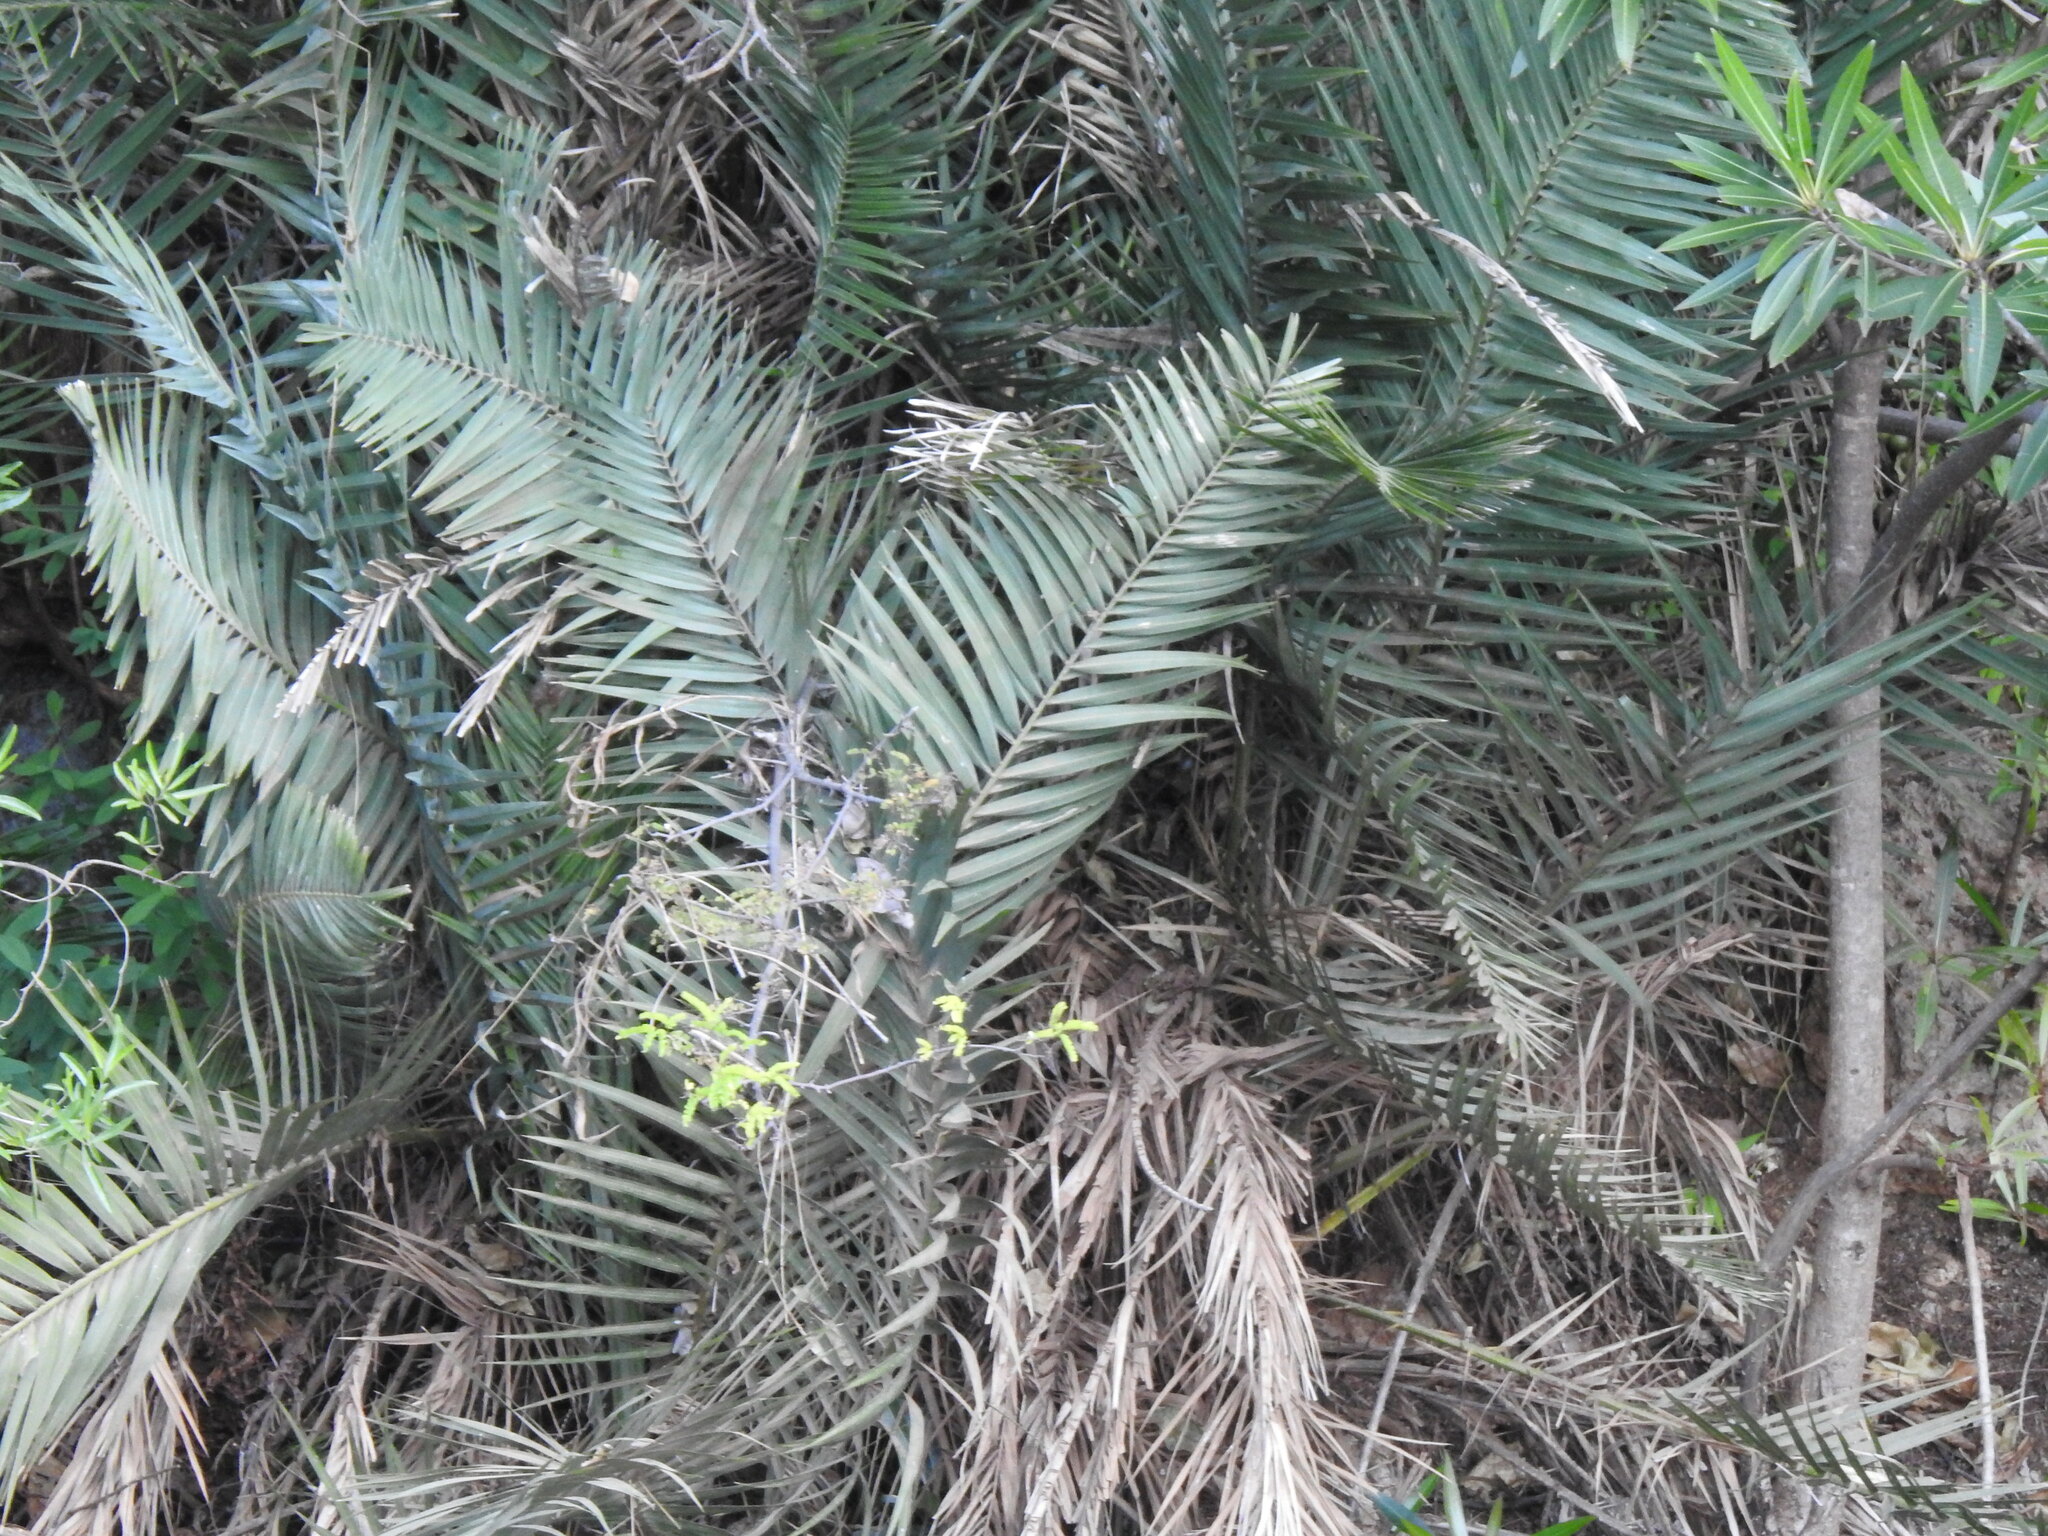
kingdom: Plantae
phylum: Tracheophyta
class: Liliopsida
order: Arecales
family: Arecaceae
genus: Phoenix
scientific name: Phoenix reclinata
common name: Senegal date palm
